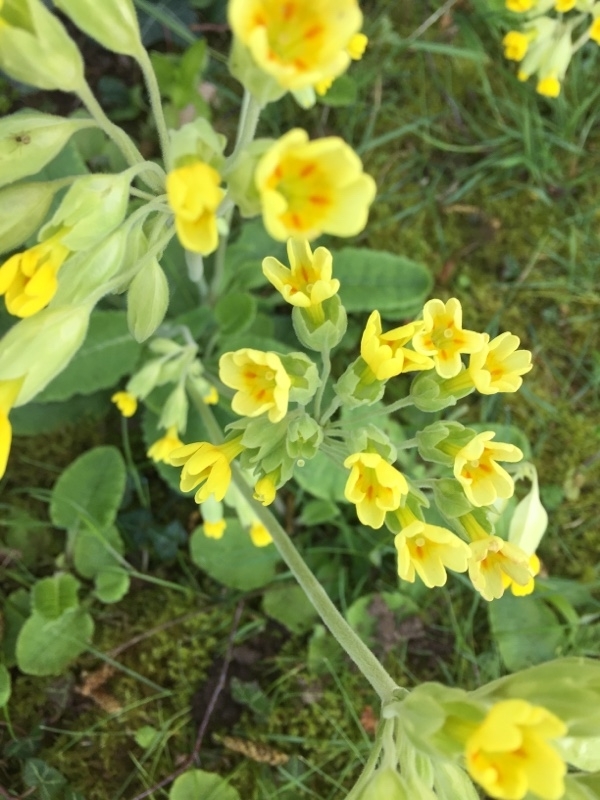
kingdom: Plantae
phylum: Tracheophyta
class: Magnoliopsida
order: Ericales
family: Primulaceae
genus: Primula
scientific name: Primula veris
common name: Cowslip
